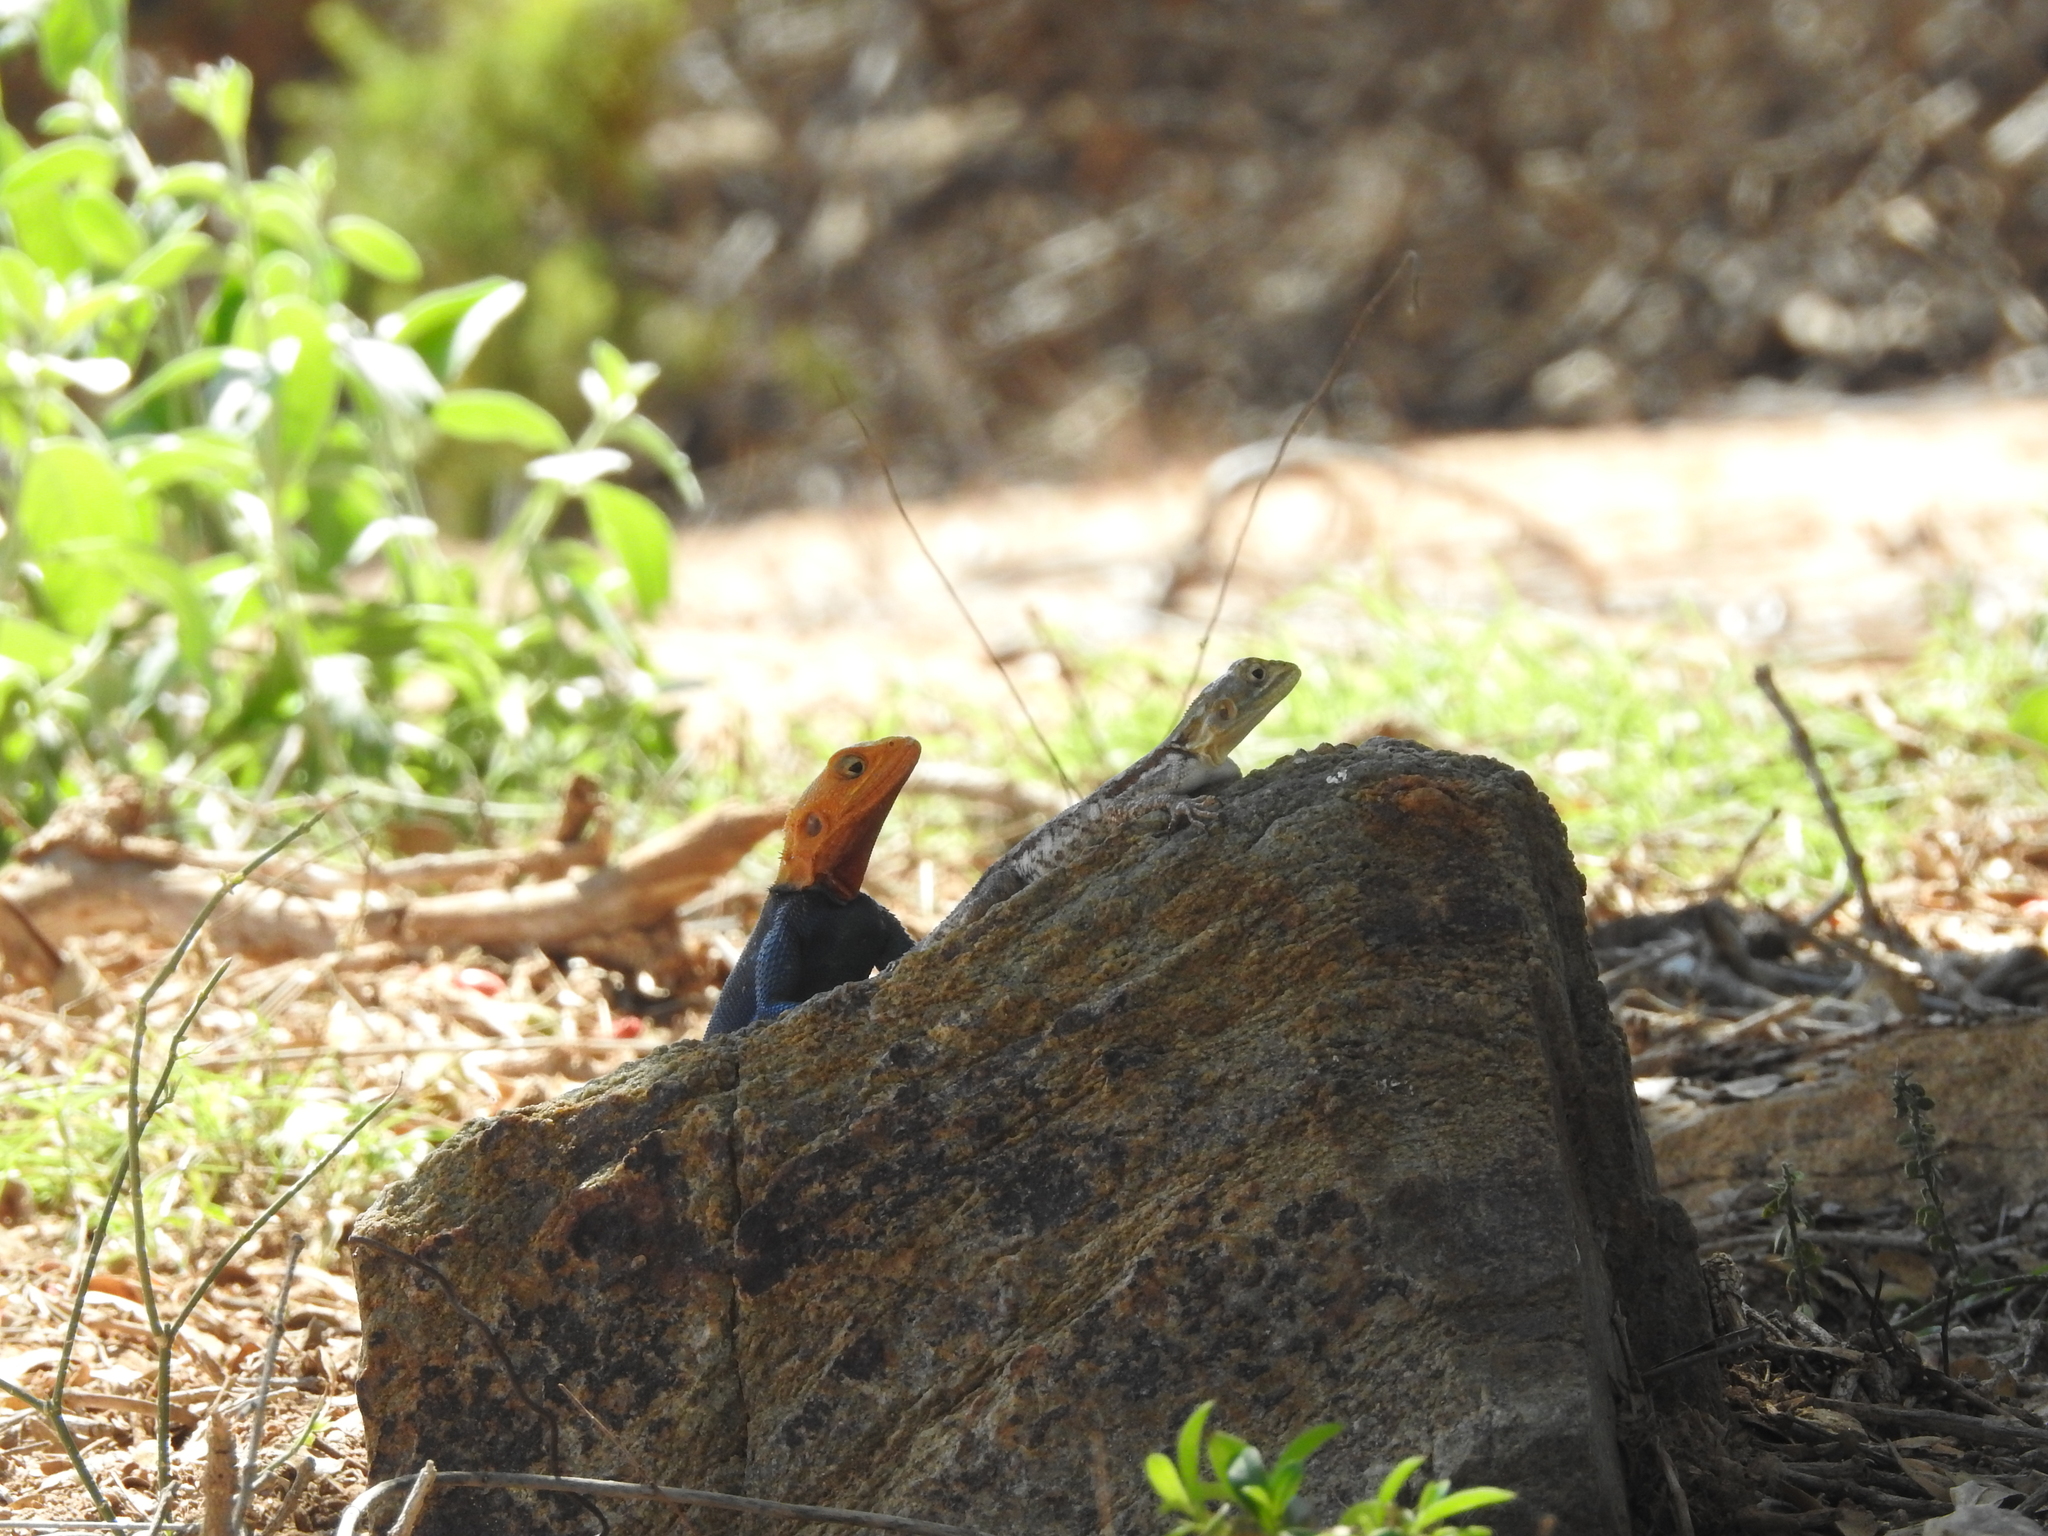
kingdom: Animalia
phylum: Chordata
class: Squamata
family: Agamidae
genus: Agama
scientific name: Agama lionotus
